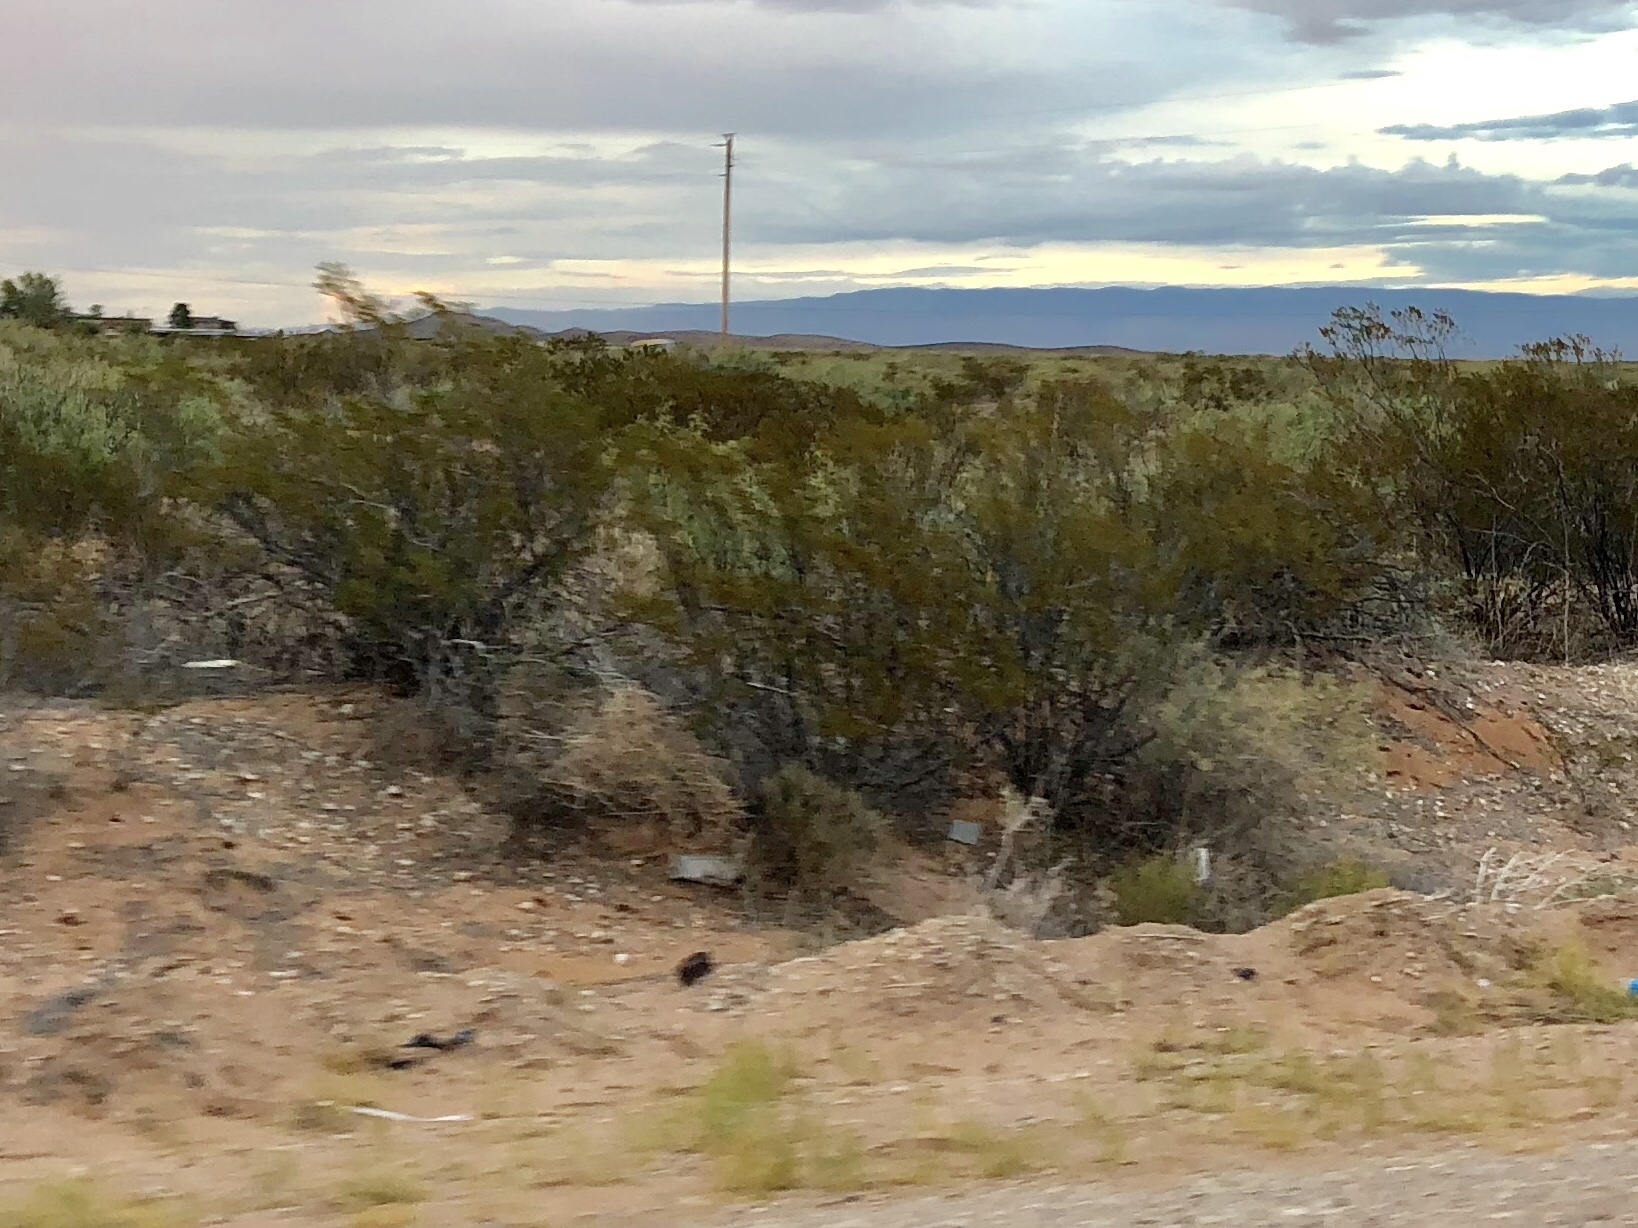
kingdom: Plantae
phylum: Tracheophyta
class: Magnoliopsida
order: Zygophyllales
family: Zygophyllaceae
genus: Larrea
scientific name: Larrea tridentata
